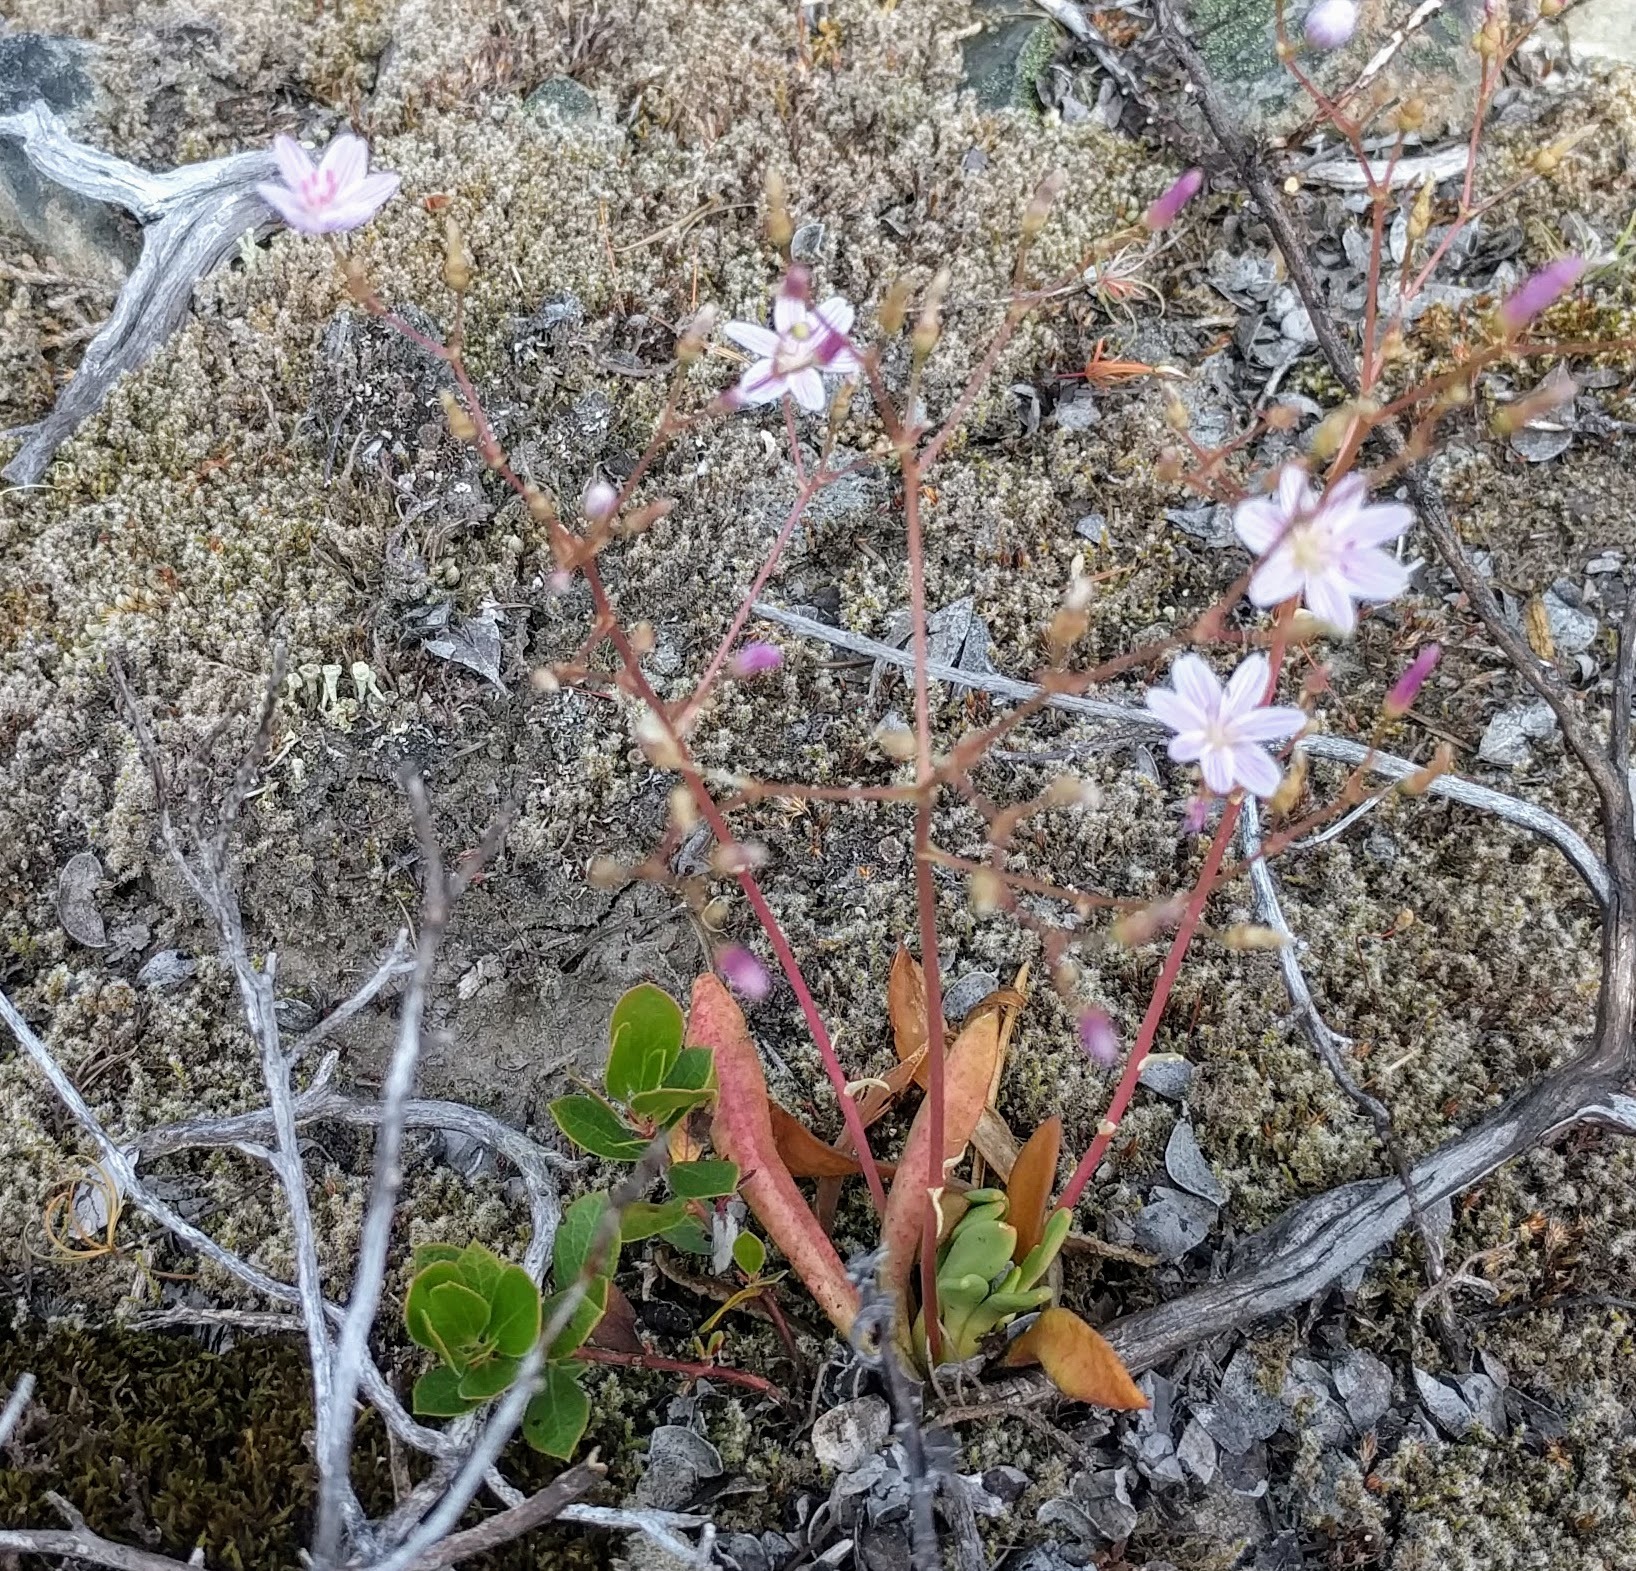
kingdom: Plantae
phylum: Tracheophyta
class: Magnoliopsida
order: Caryophyllales
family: Montiaceae
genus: Lewisia
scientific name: Lewisia columbiana
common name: Columbia lewisia
